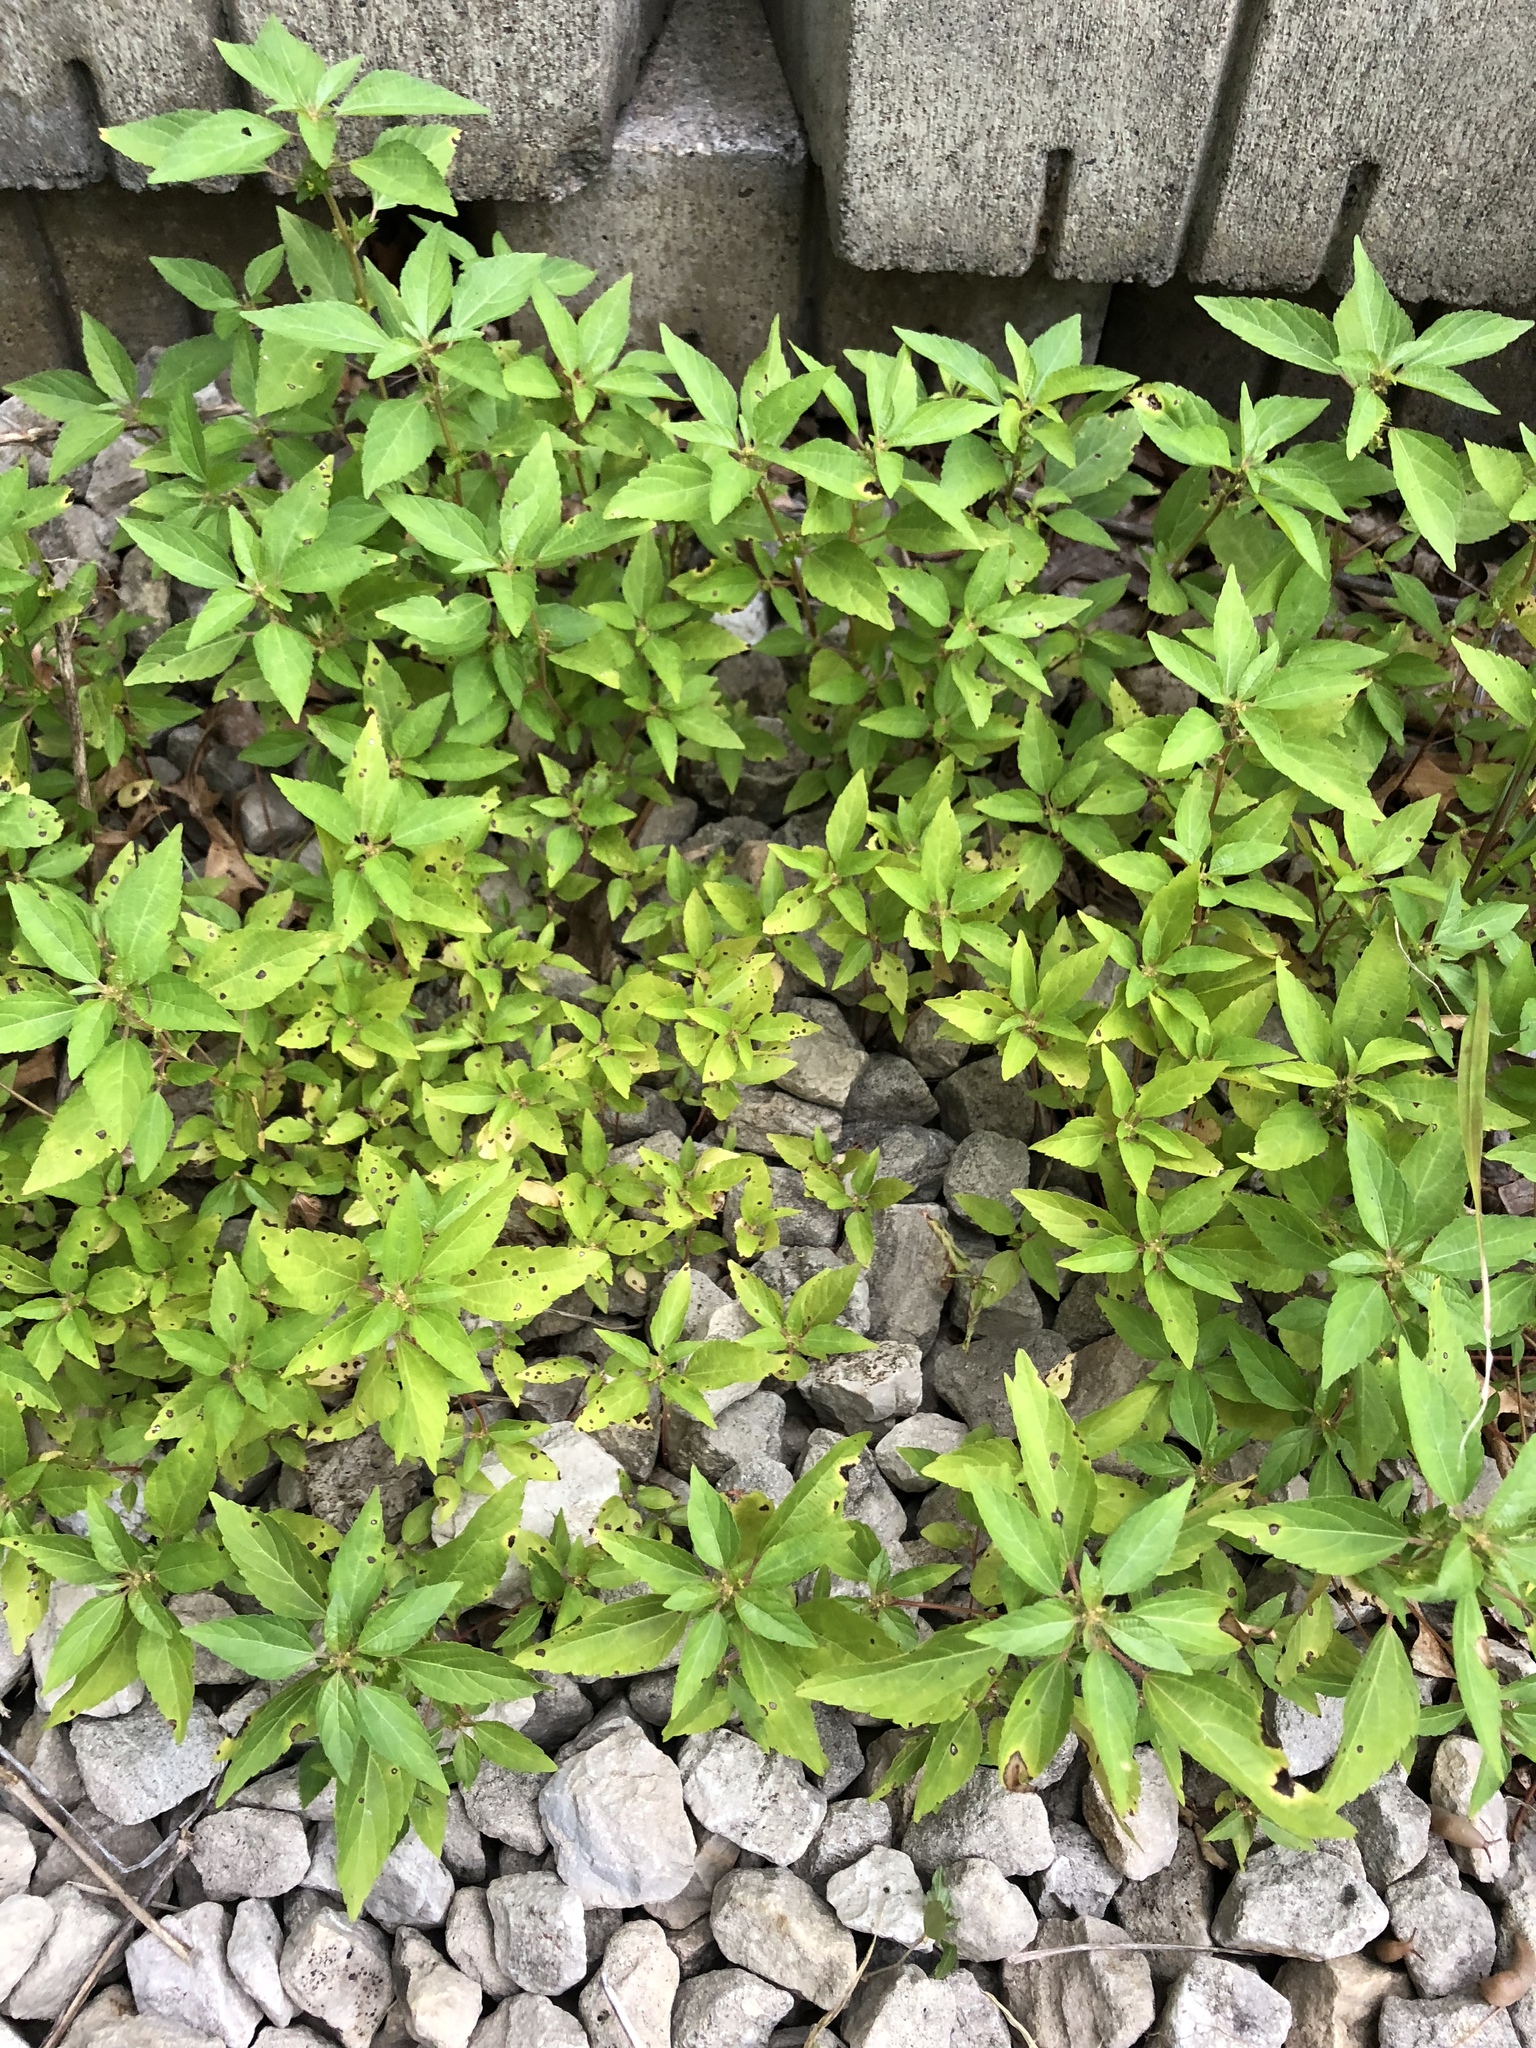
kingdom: Plantae
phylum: Tracheophyta
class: Magnoliopsida
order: Malpighiales
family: Euphorbiaceae
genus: Acalypha
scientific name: Acalypha rhomboidea
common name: Rhombic copperleaf
